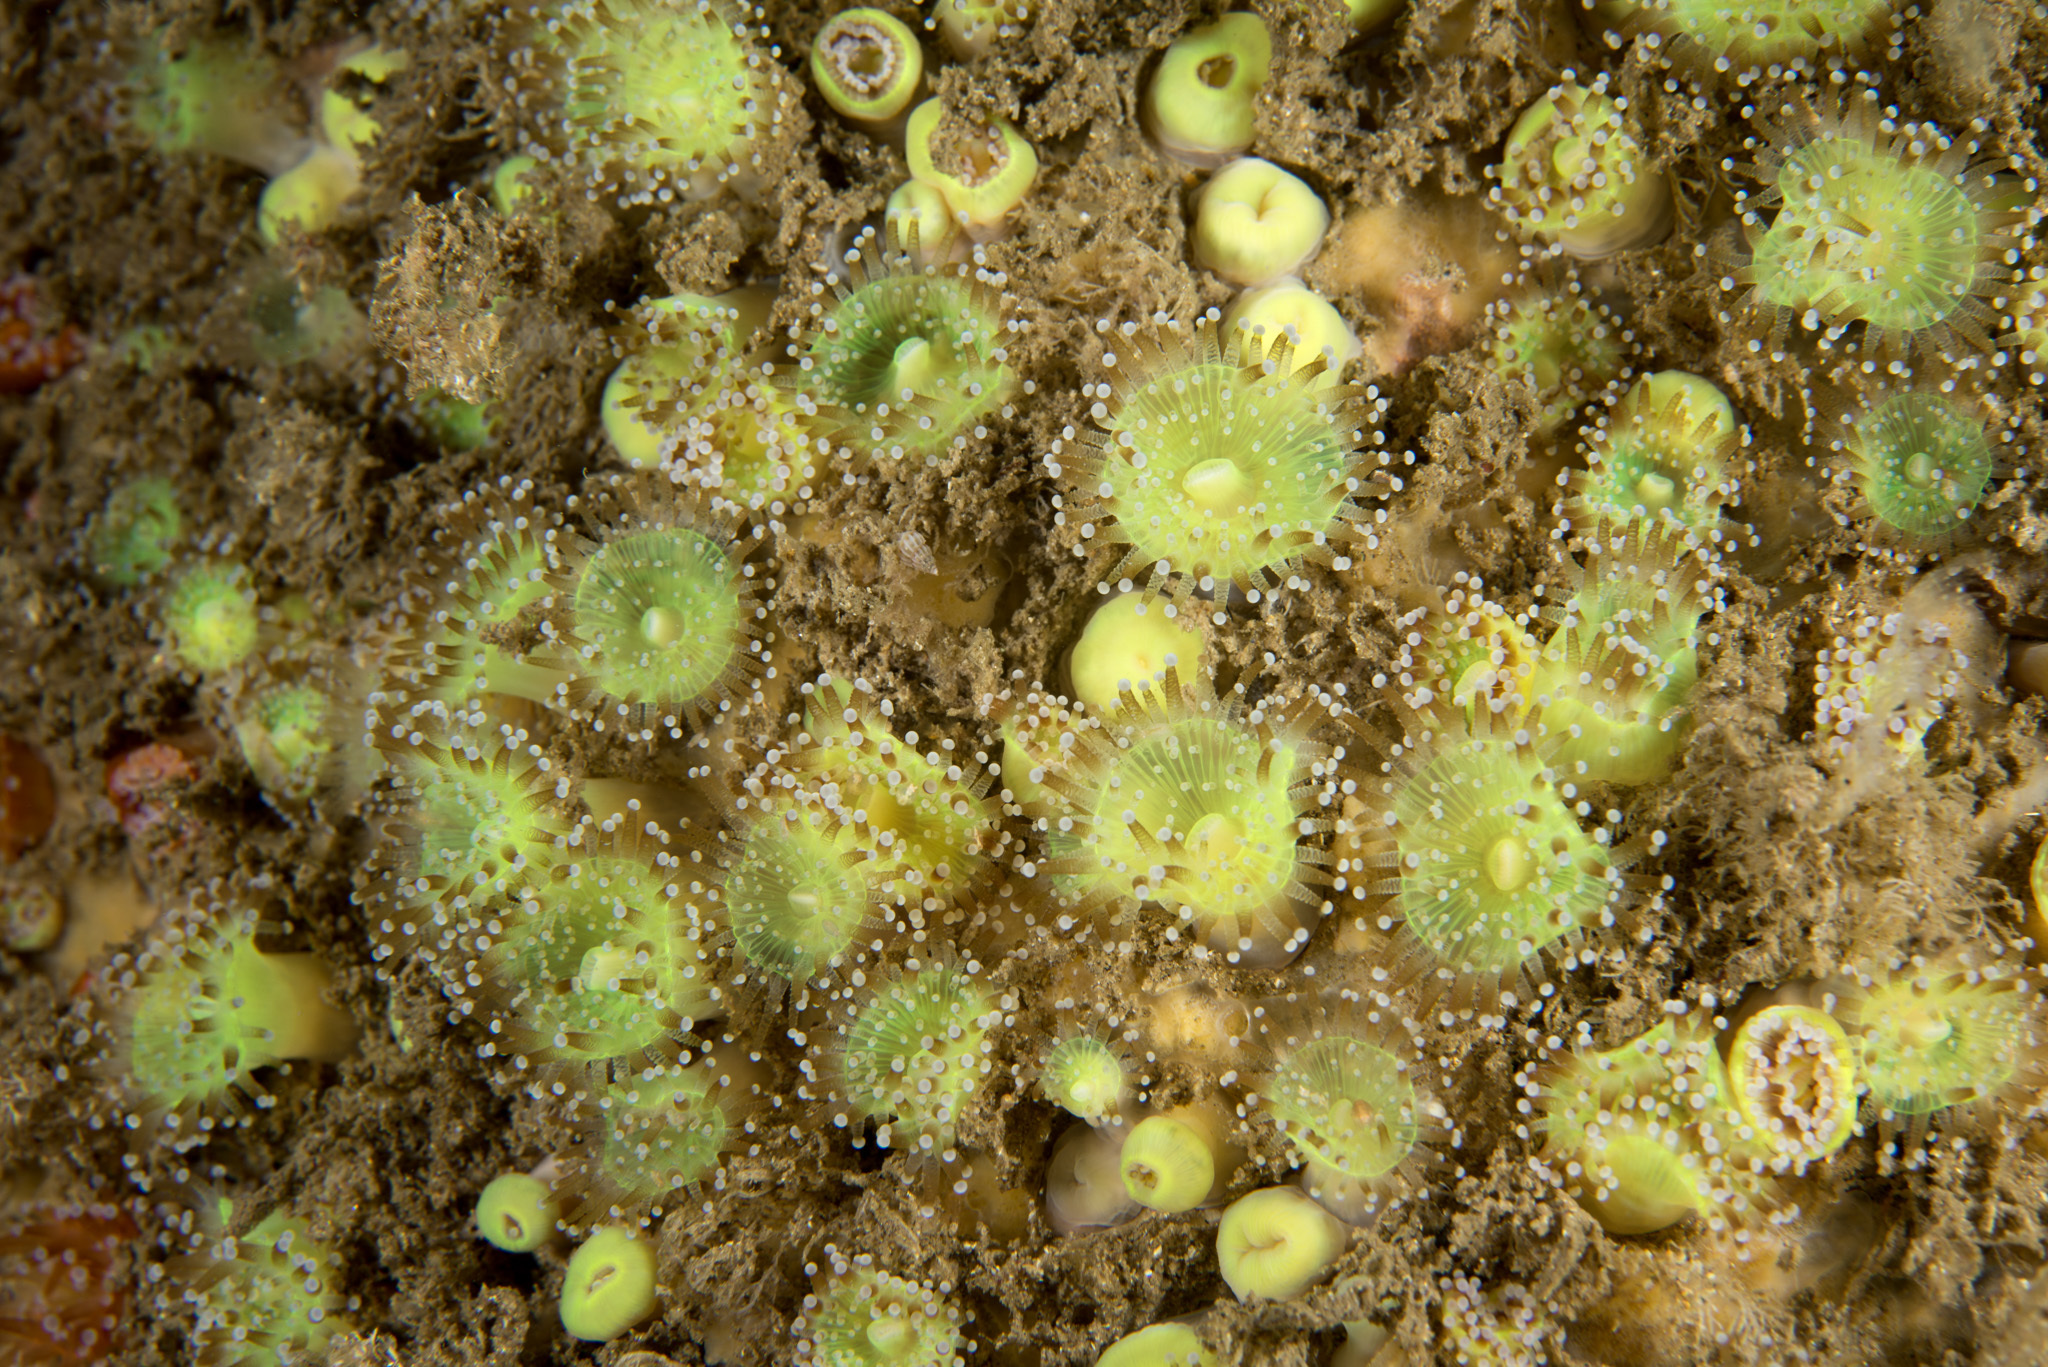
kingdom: Animalia
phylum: Cnidaria
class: Anthozoa
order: Corallimorpharia
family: Corallimorphidae
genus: Corynactis
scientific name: Corynactis viridis
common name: Jewel anemone
